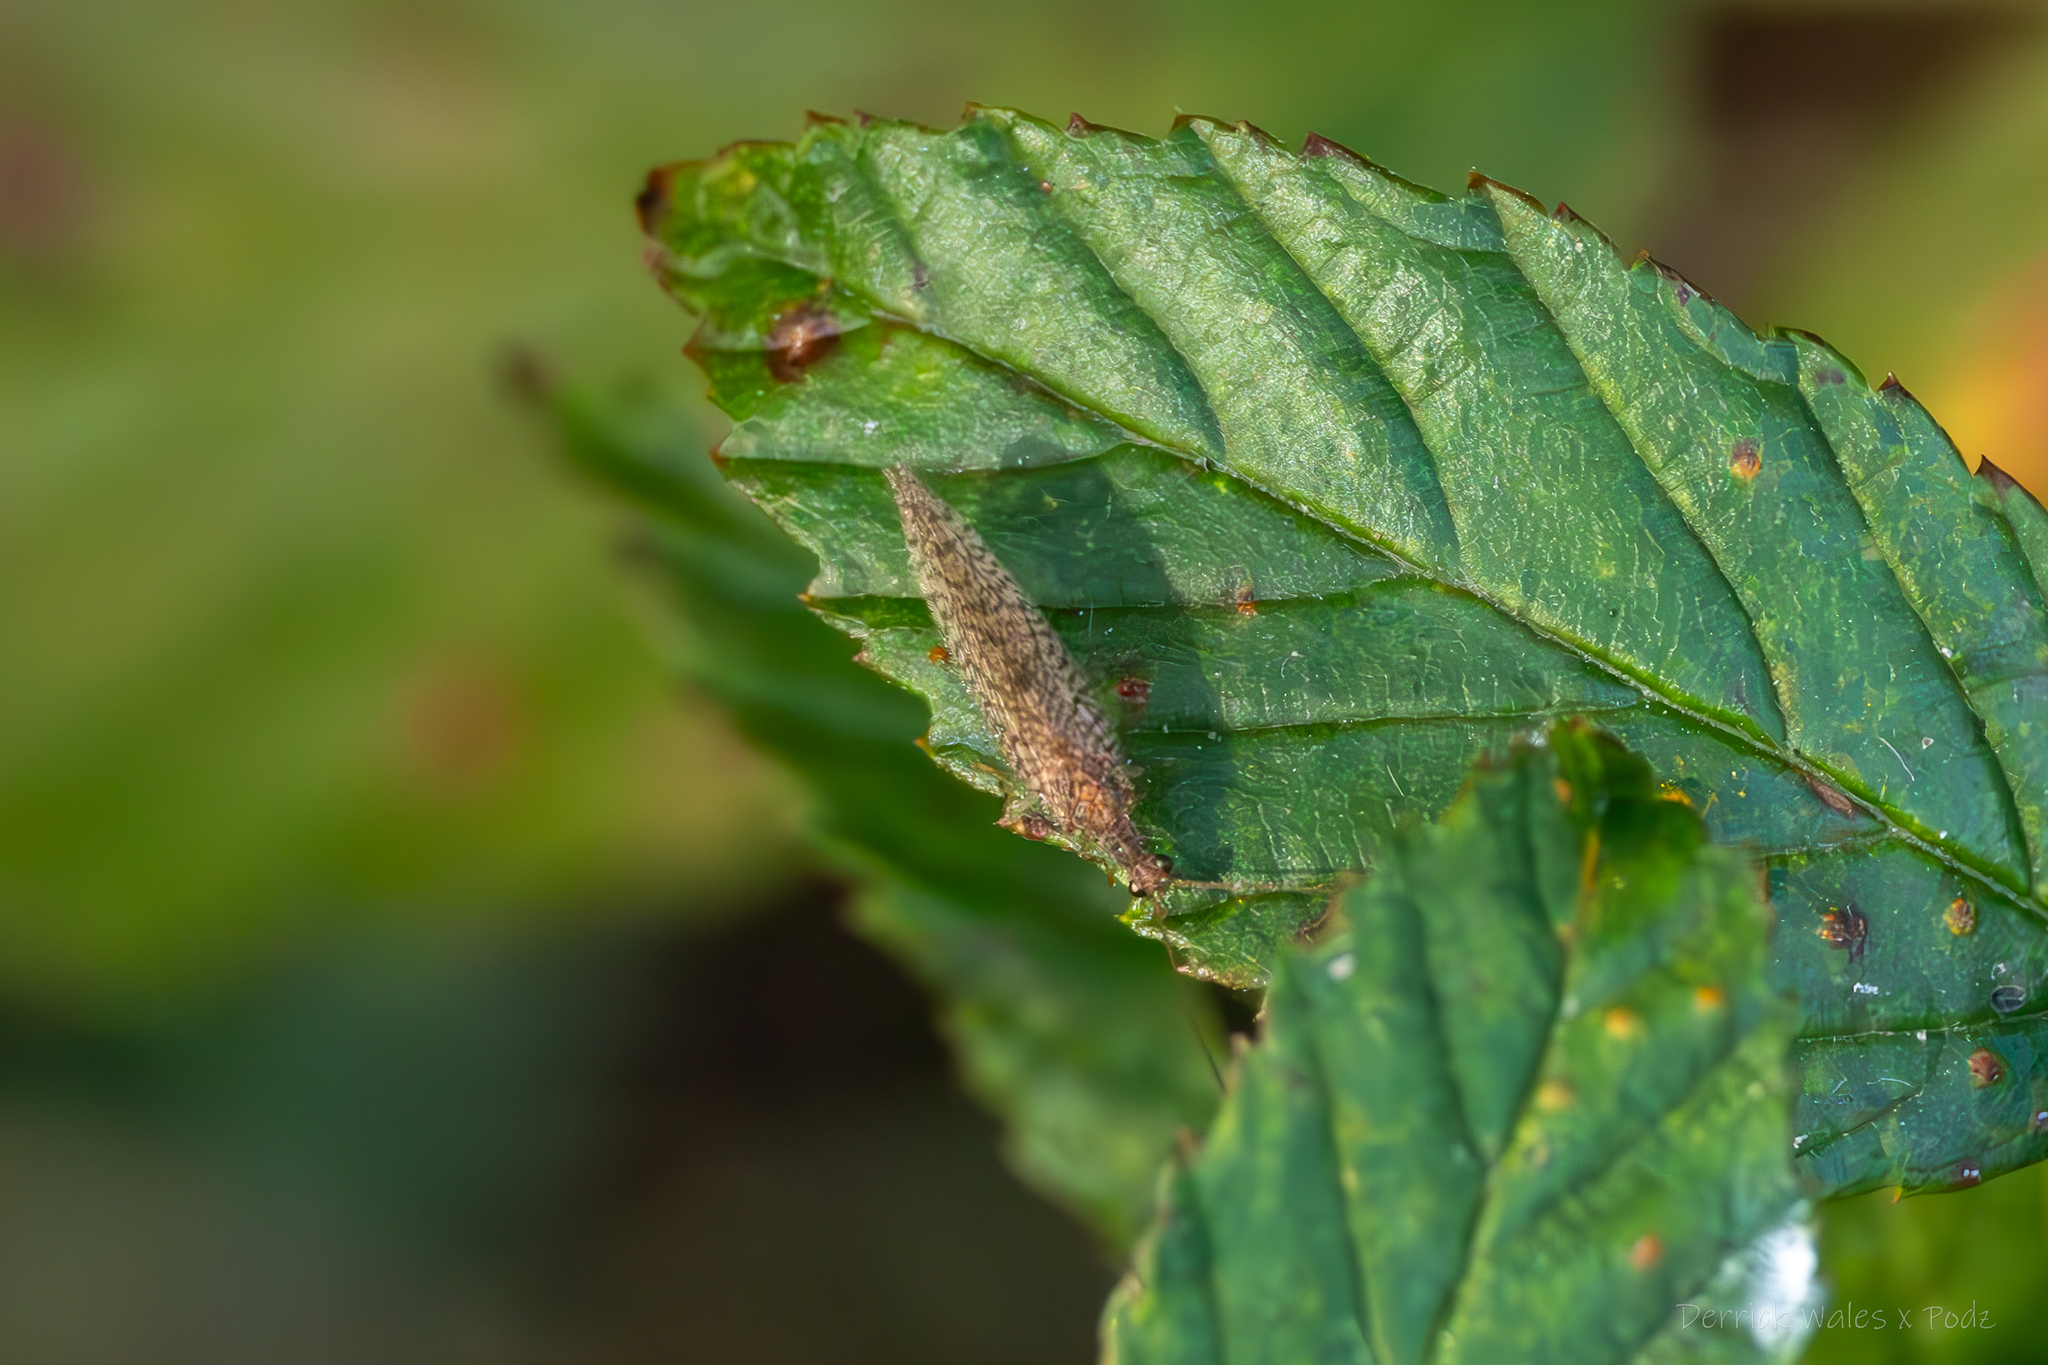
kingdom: Animalia
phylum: Arthropoda
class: Insecta
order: Neuroptera
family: Hemerobiidae
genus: Micromus
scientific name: Micromus posticus
